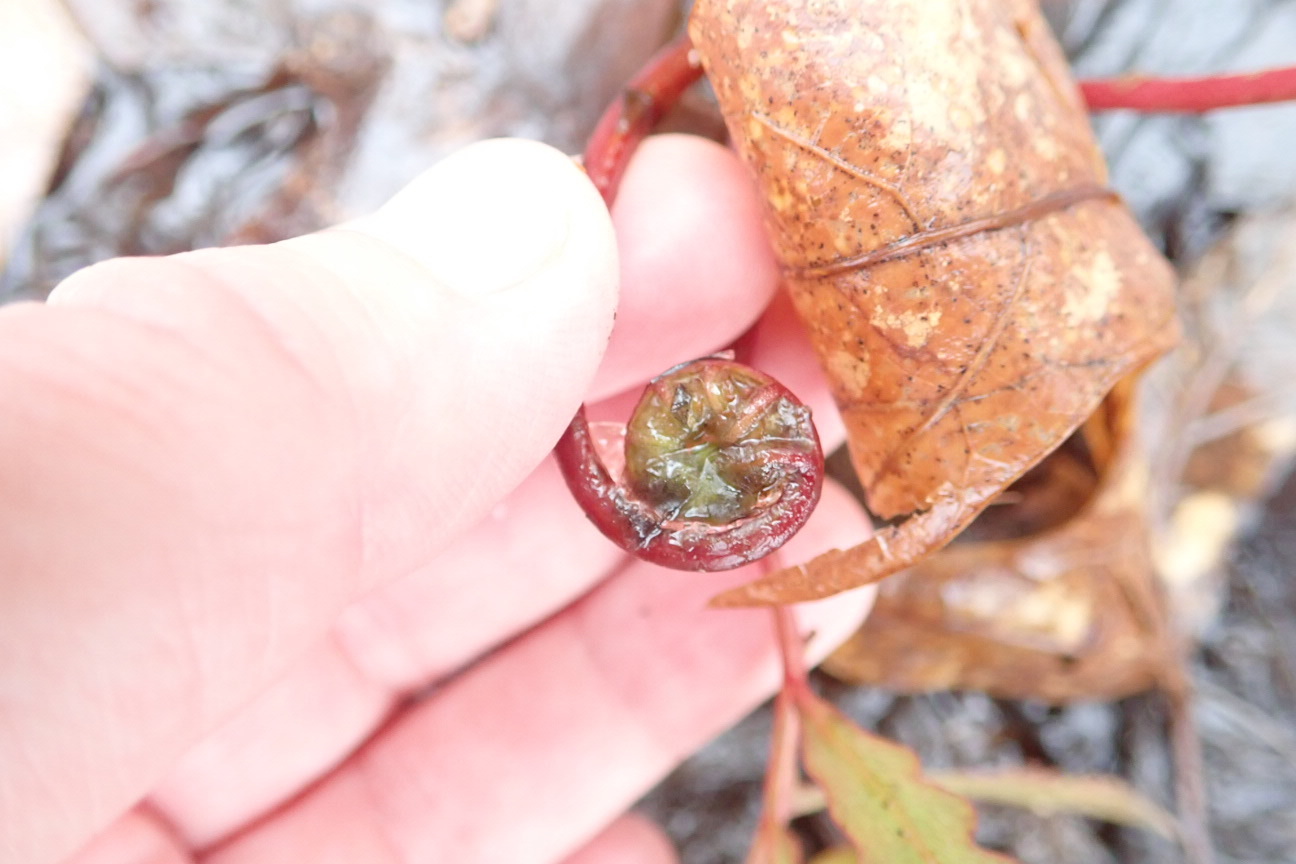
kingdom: Plantae
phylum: Tracheophyta
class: Polypodiopsida
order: Polypodiales
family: Onocleaceae
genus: Onoclea
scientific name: Onoclea sensibilis
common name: Sensitive fern
